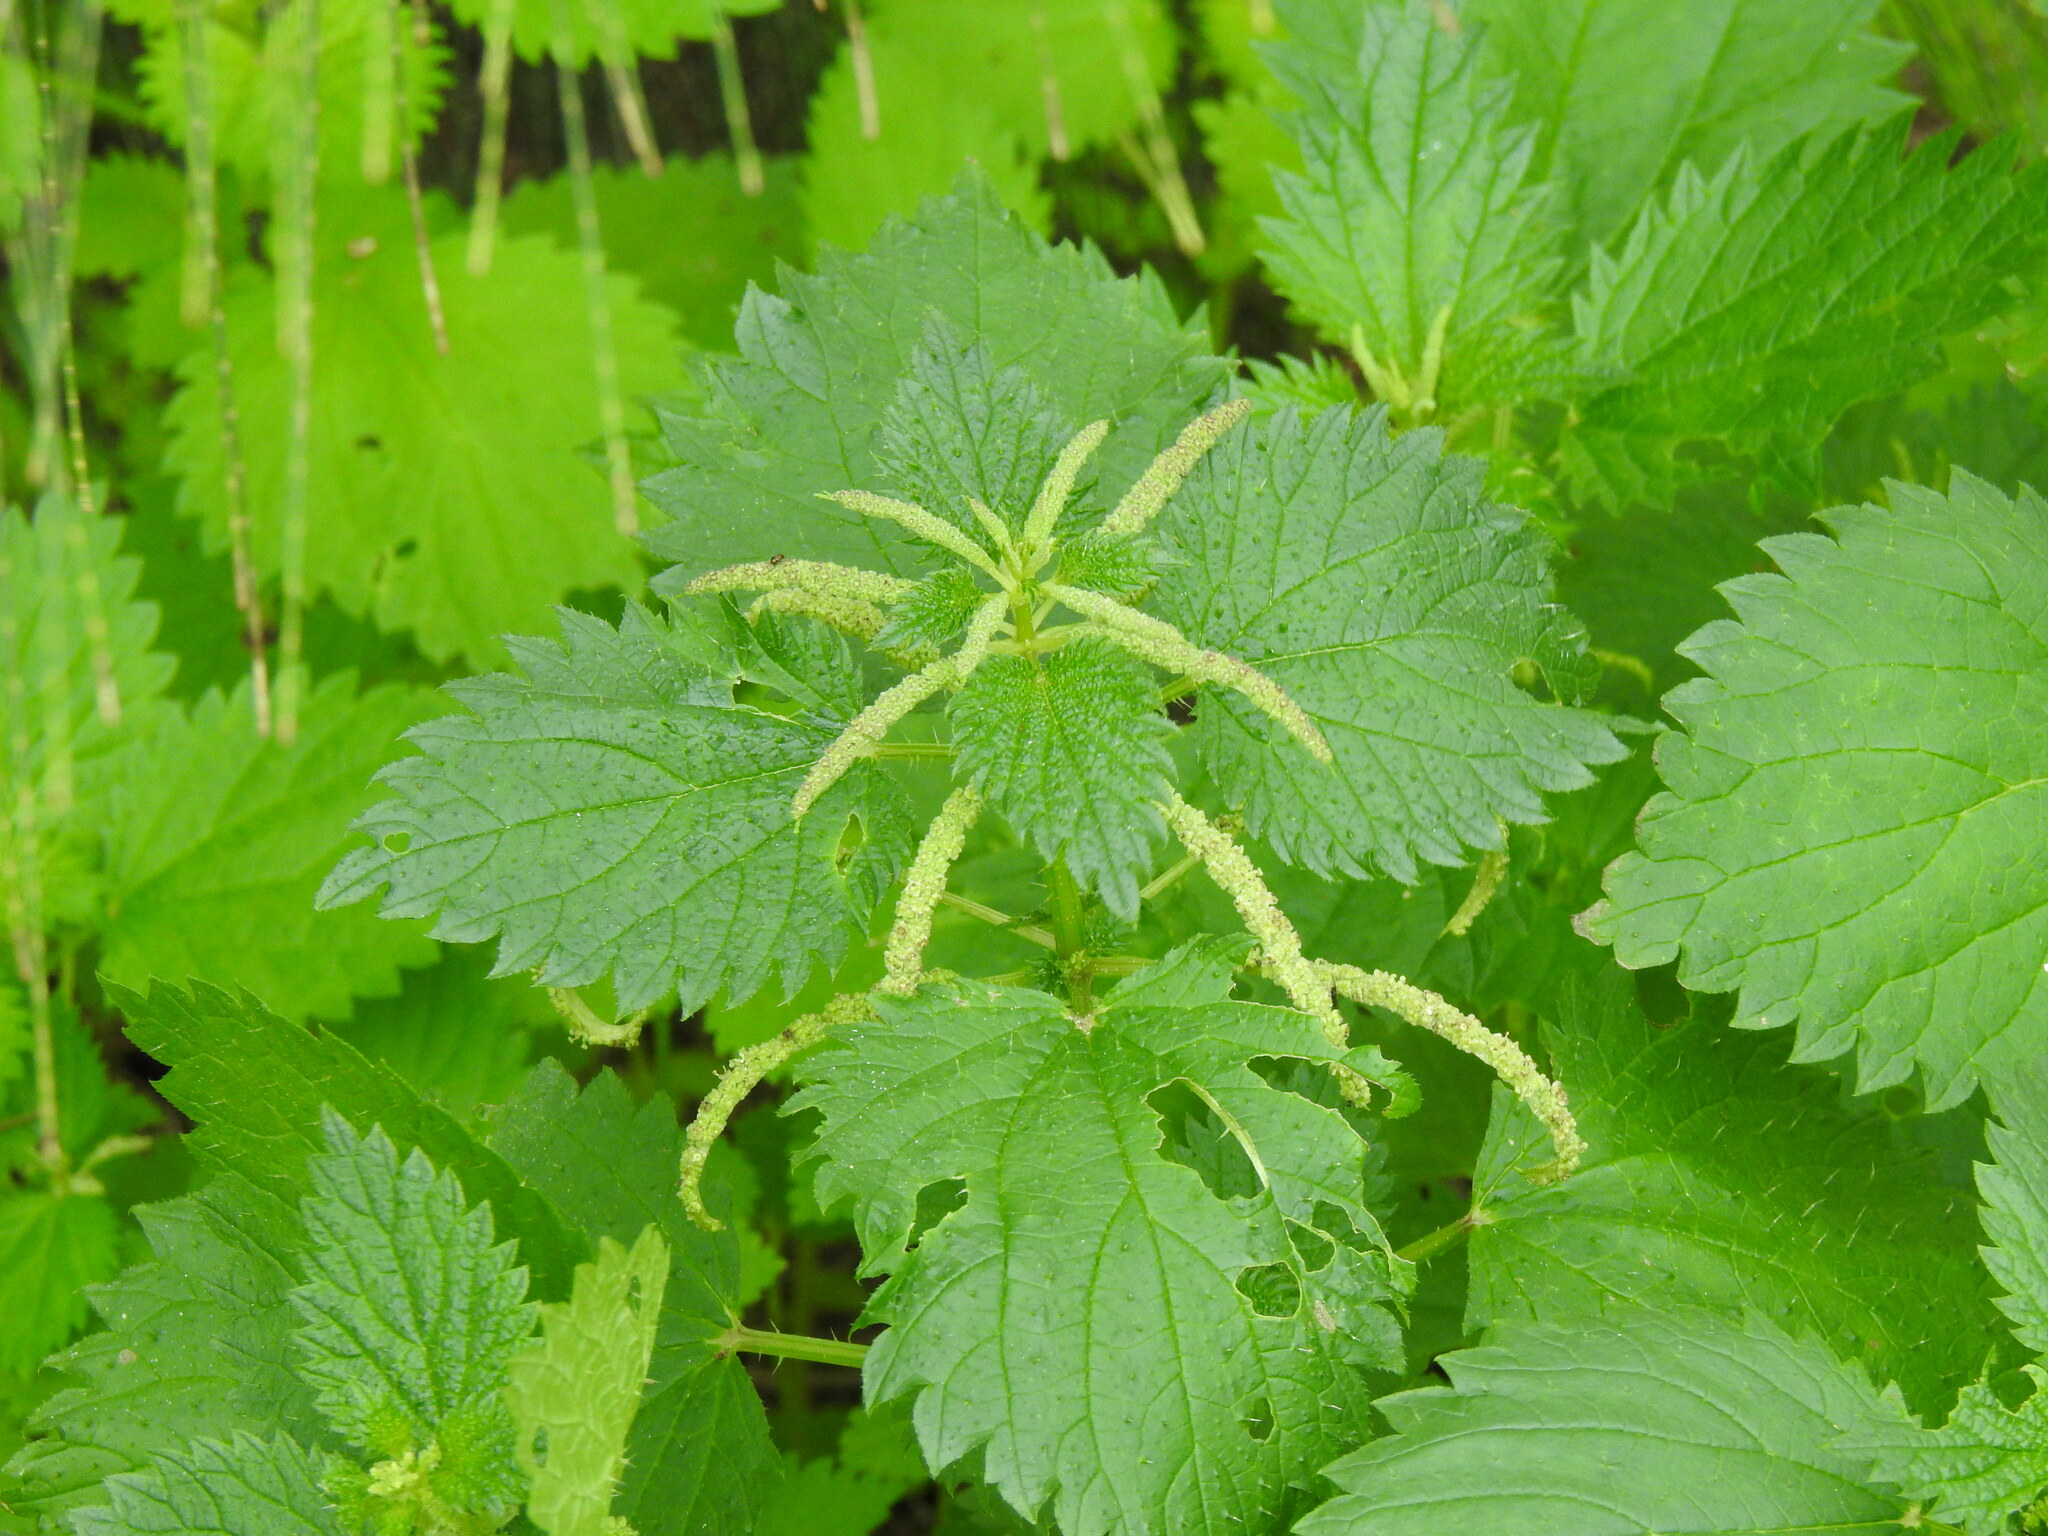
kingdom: Plantae
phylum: Tracheophyta
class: Magnoliopsida
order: Rosales
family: Urticaceae
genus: Urtica
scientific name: Urtica membranacea
